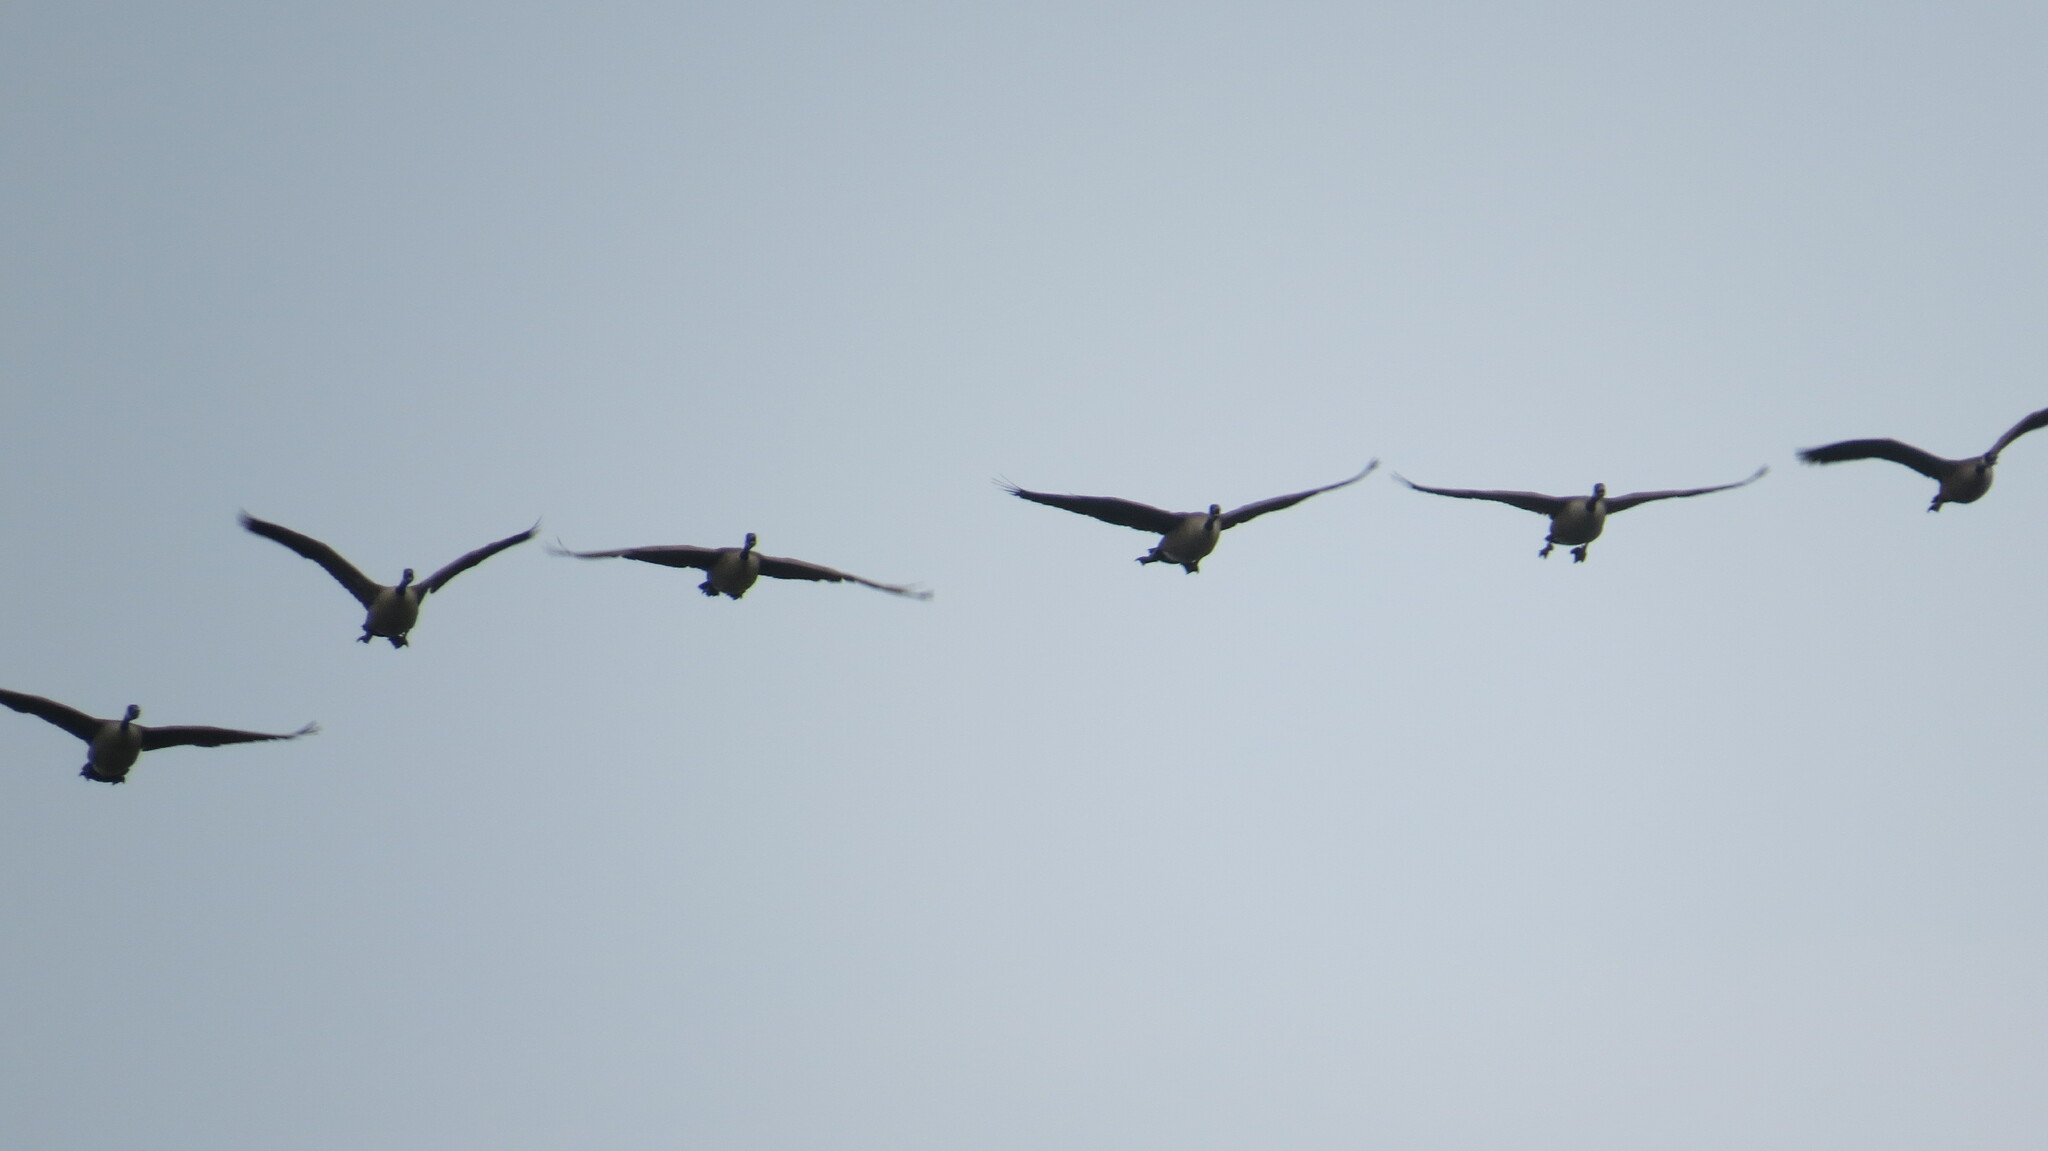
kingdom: Animalia
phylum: Chordata
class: Aves
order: Anseriformes
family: Anatidae
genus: Branta
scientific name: Branta canadensis
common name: Canada goose
